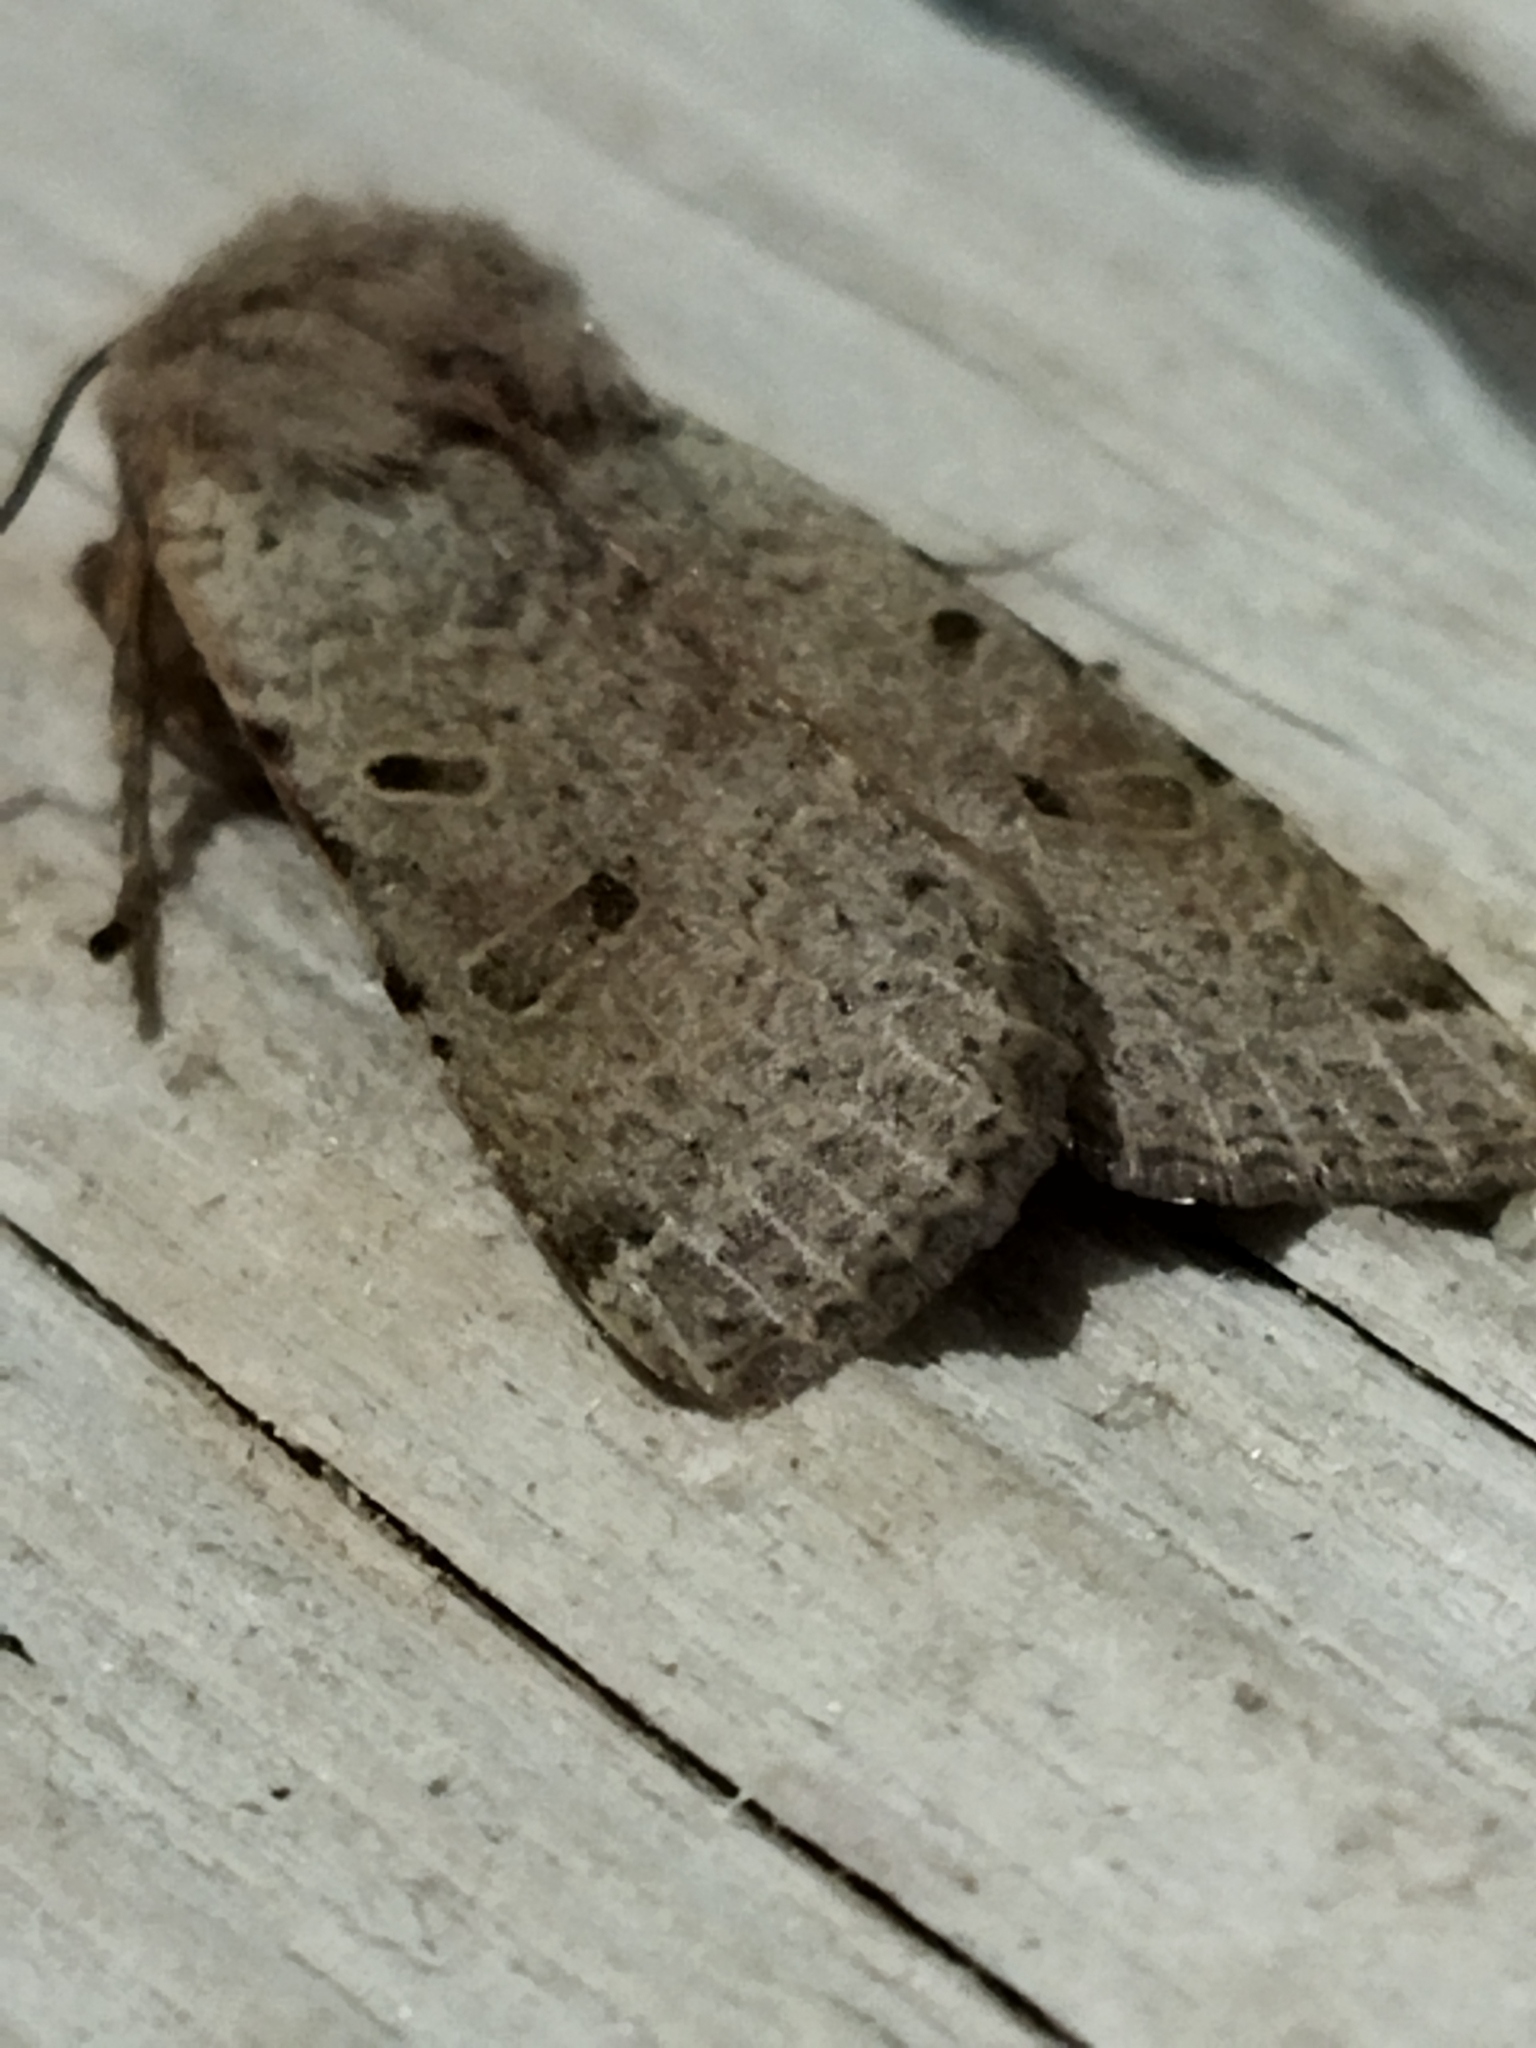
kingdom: Animalia
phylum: Arthropoda
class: Insecta
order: Lepidoptera
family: Noctuidae
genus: Agrochola
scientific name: Agrochola lychnidis
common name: Beaded chestnut
